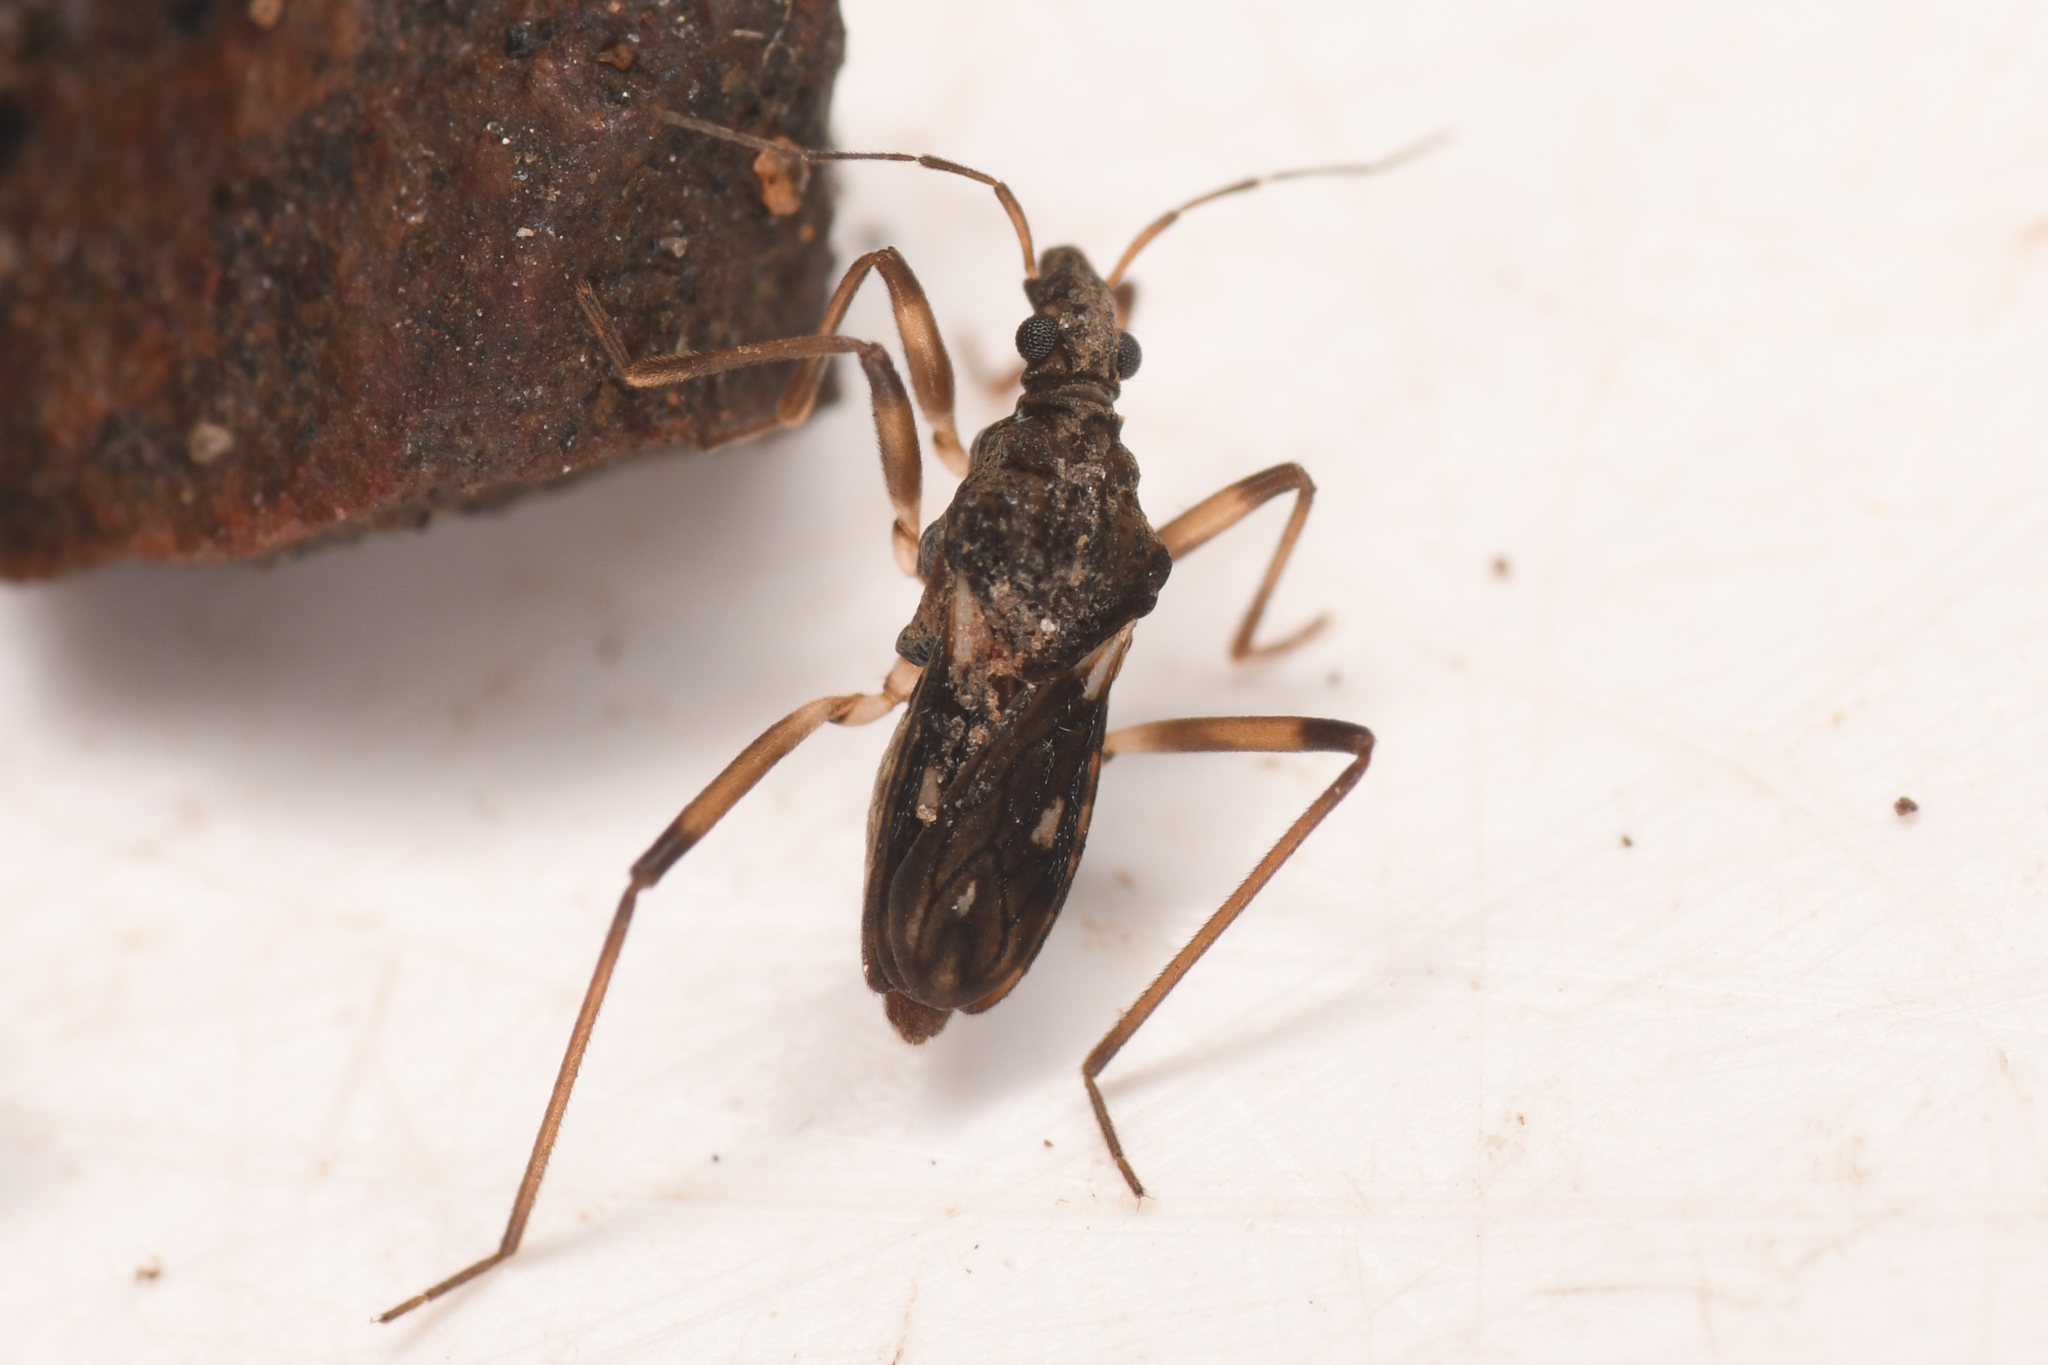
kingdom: Animalia
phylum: Arthropoda
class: Insecta
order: Hemiptera
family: Macroveliidae
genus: Macrovelia
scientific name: Macrovelia hornii
